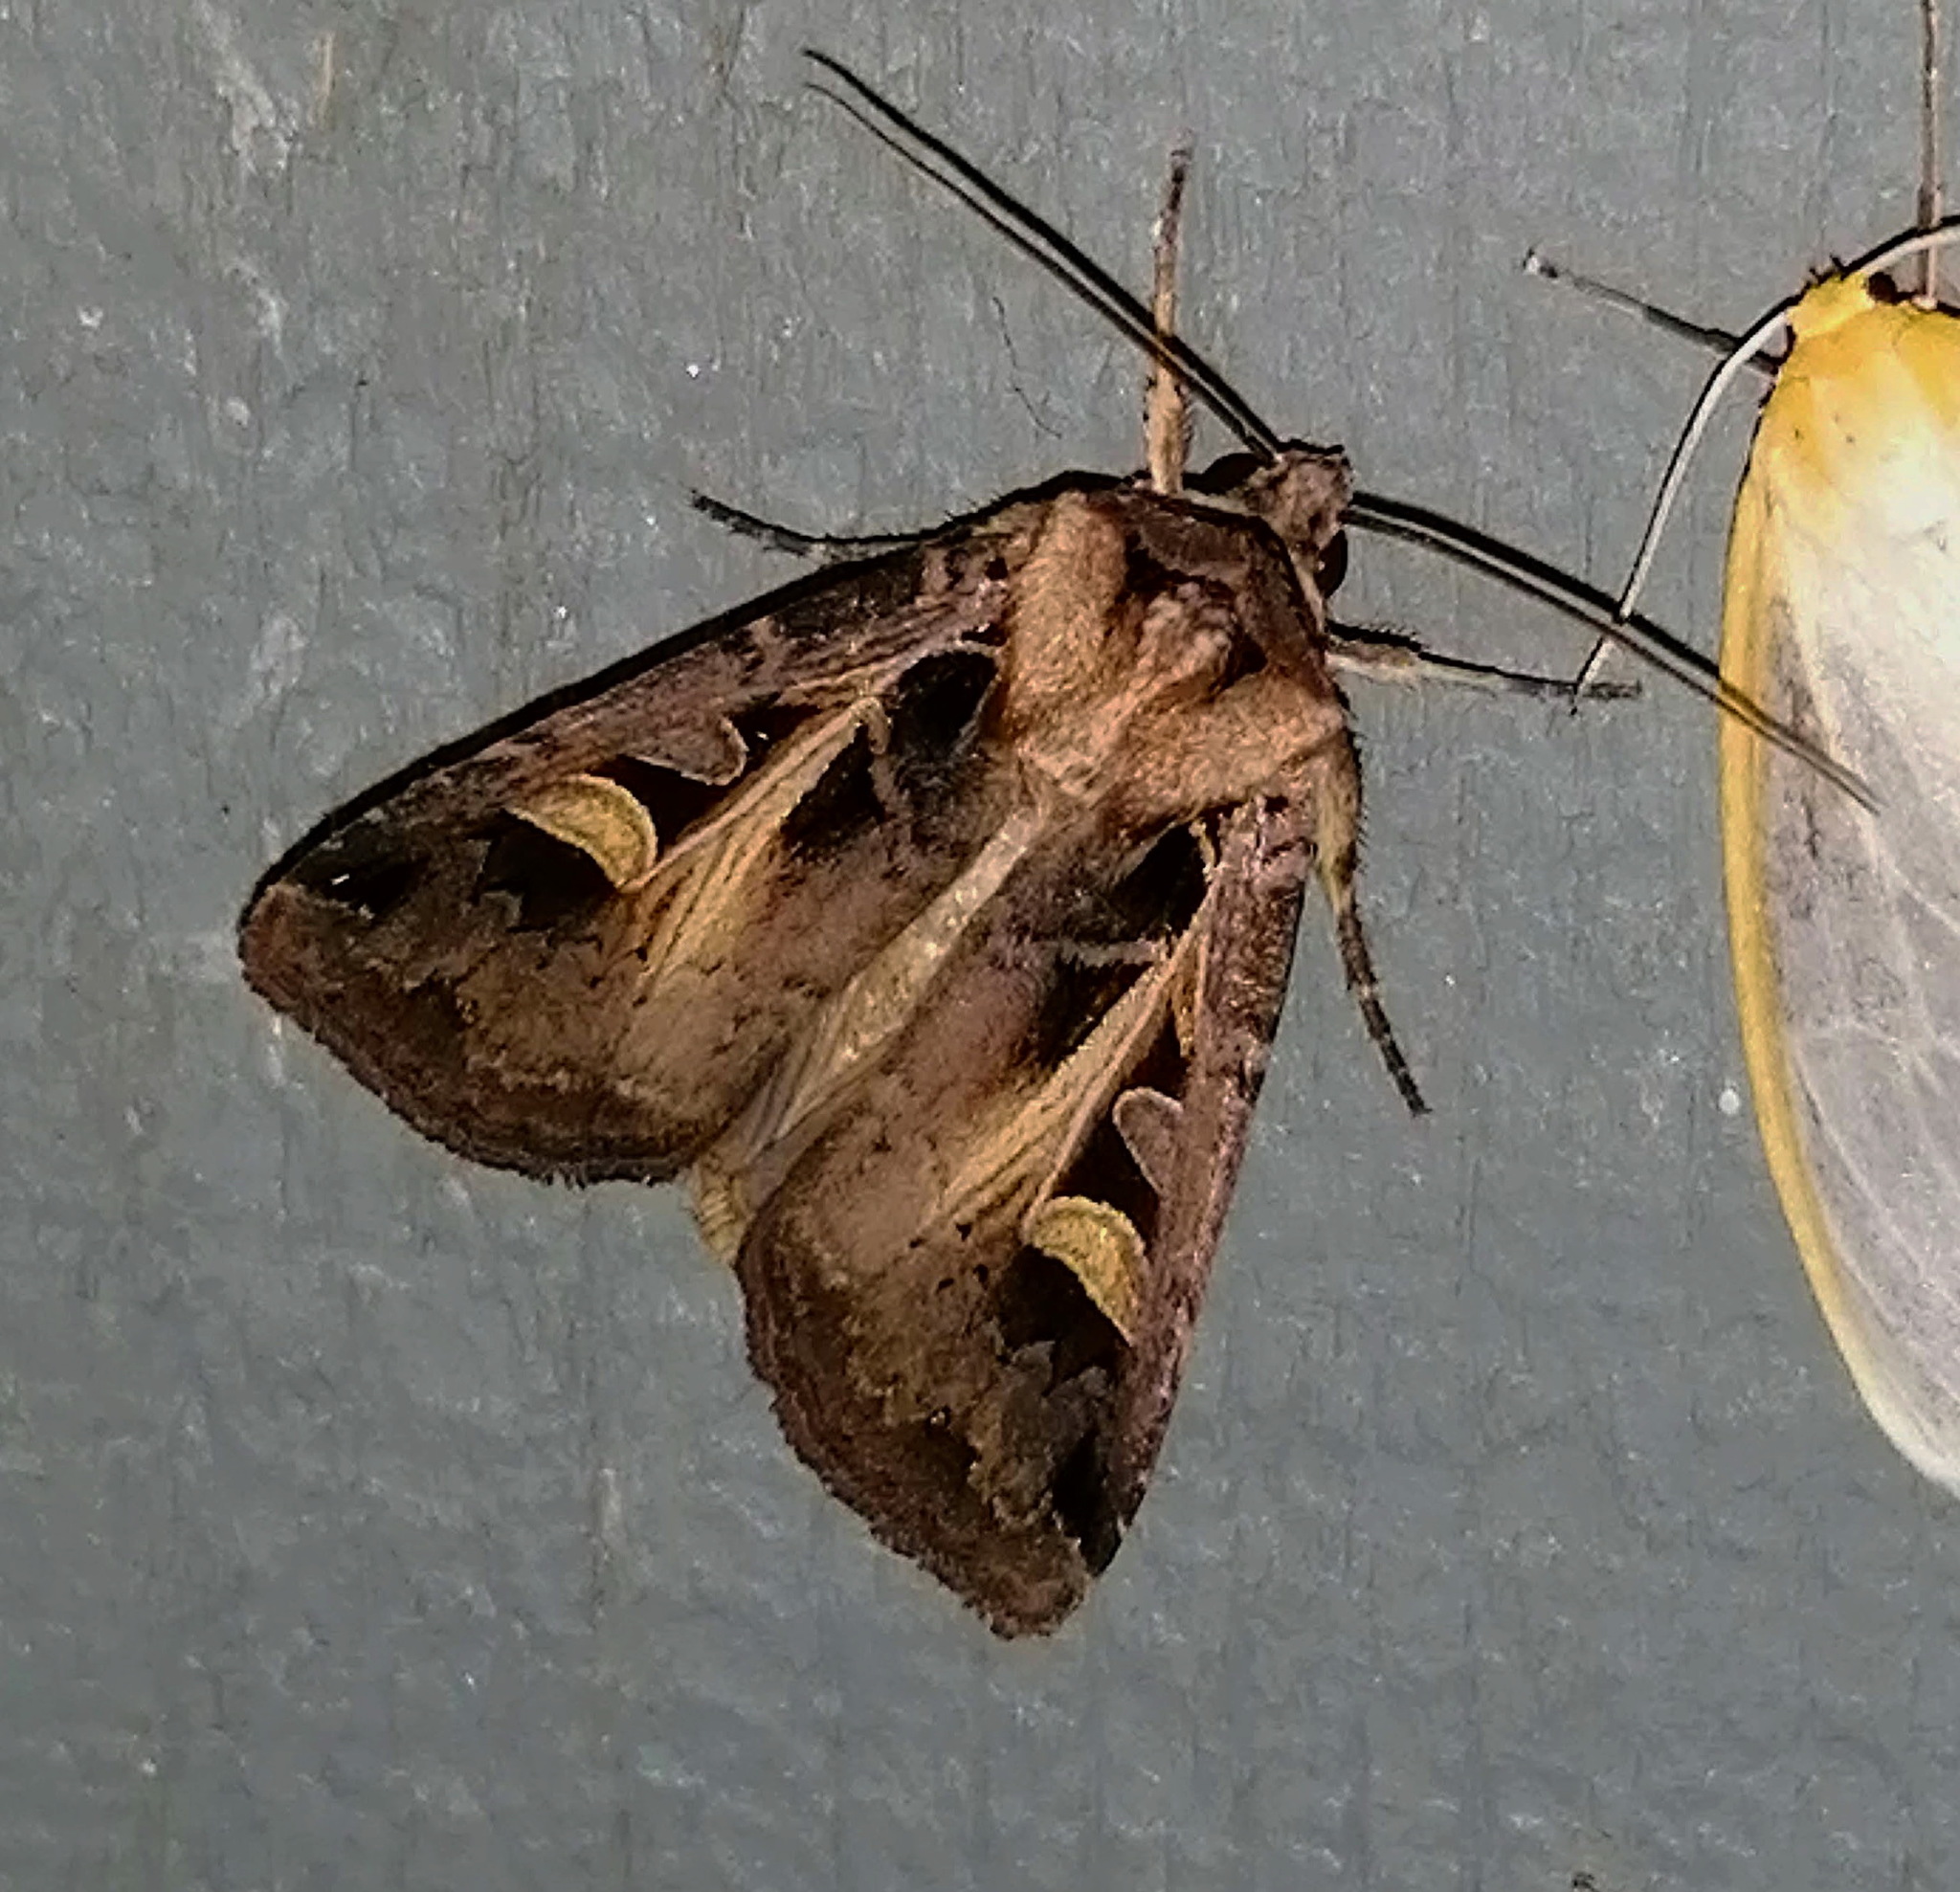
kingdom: Animalia
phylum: Arthropoda
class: Insecta
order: Lepidoptera
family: Noctuidae
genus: Feltia
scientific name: Feltia herilis
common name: Master's dart
